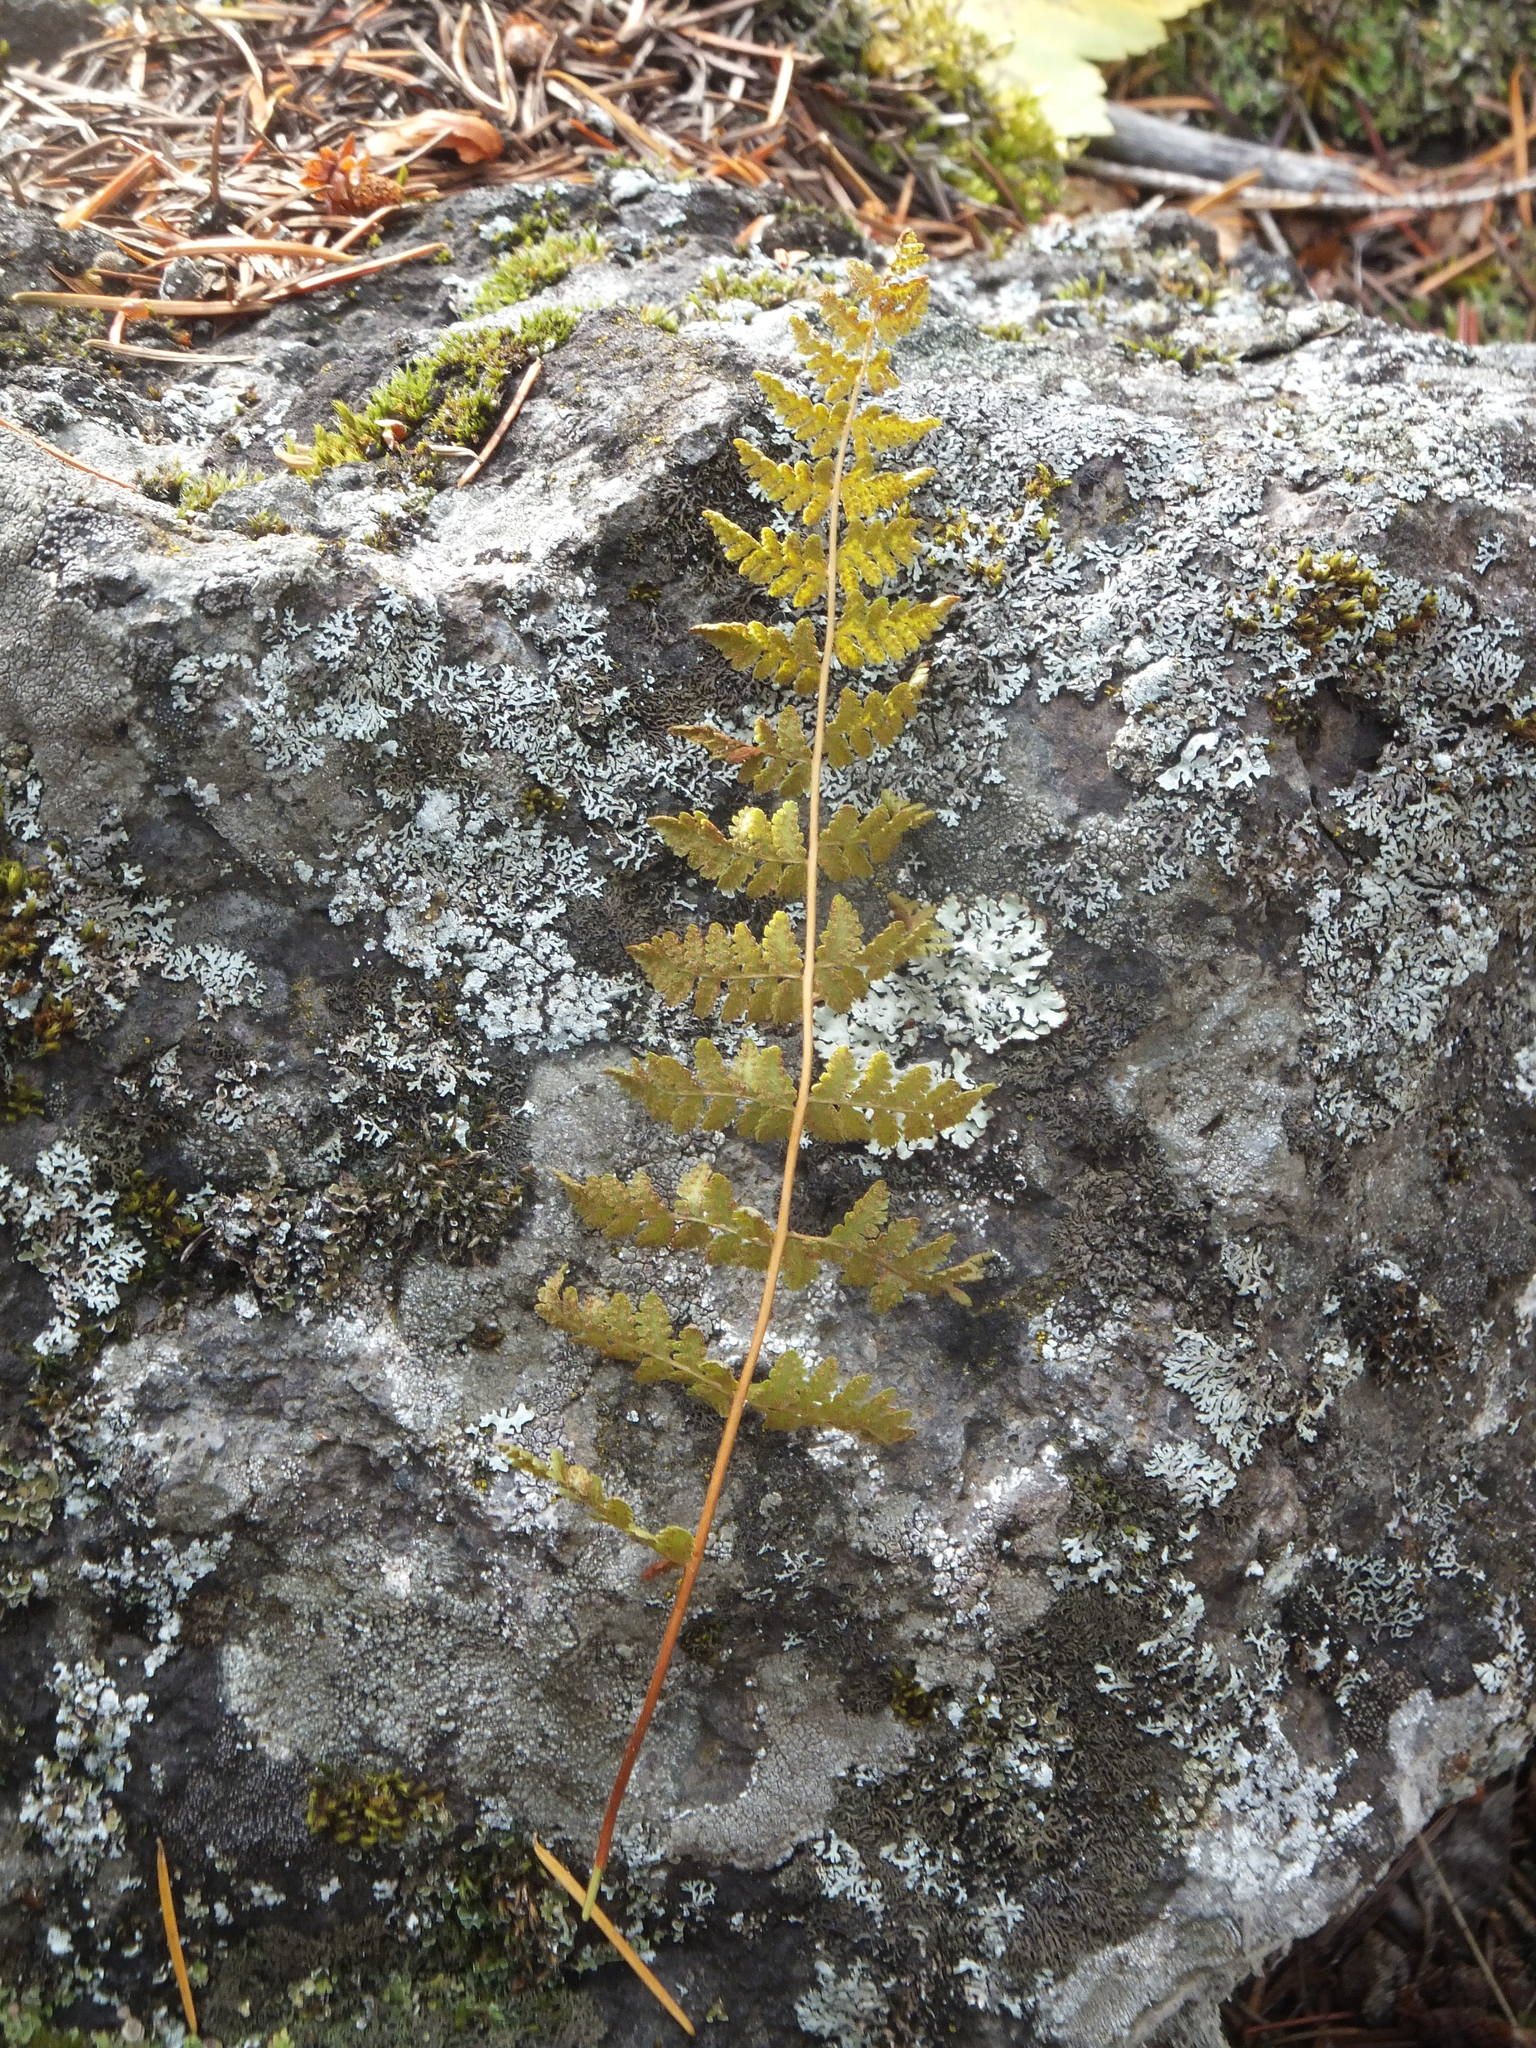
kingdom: Plantae
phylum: Tracheophyta
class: Polypodiopsida
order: Polypodiales
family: Woodsiaceae
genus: Physematium
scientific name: Physematium scopulinum
